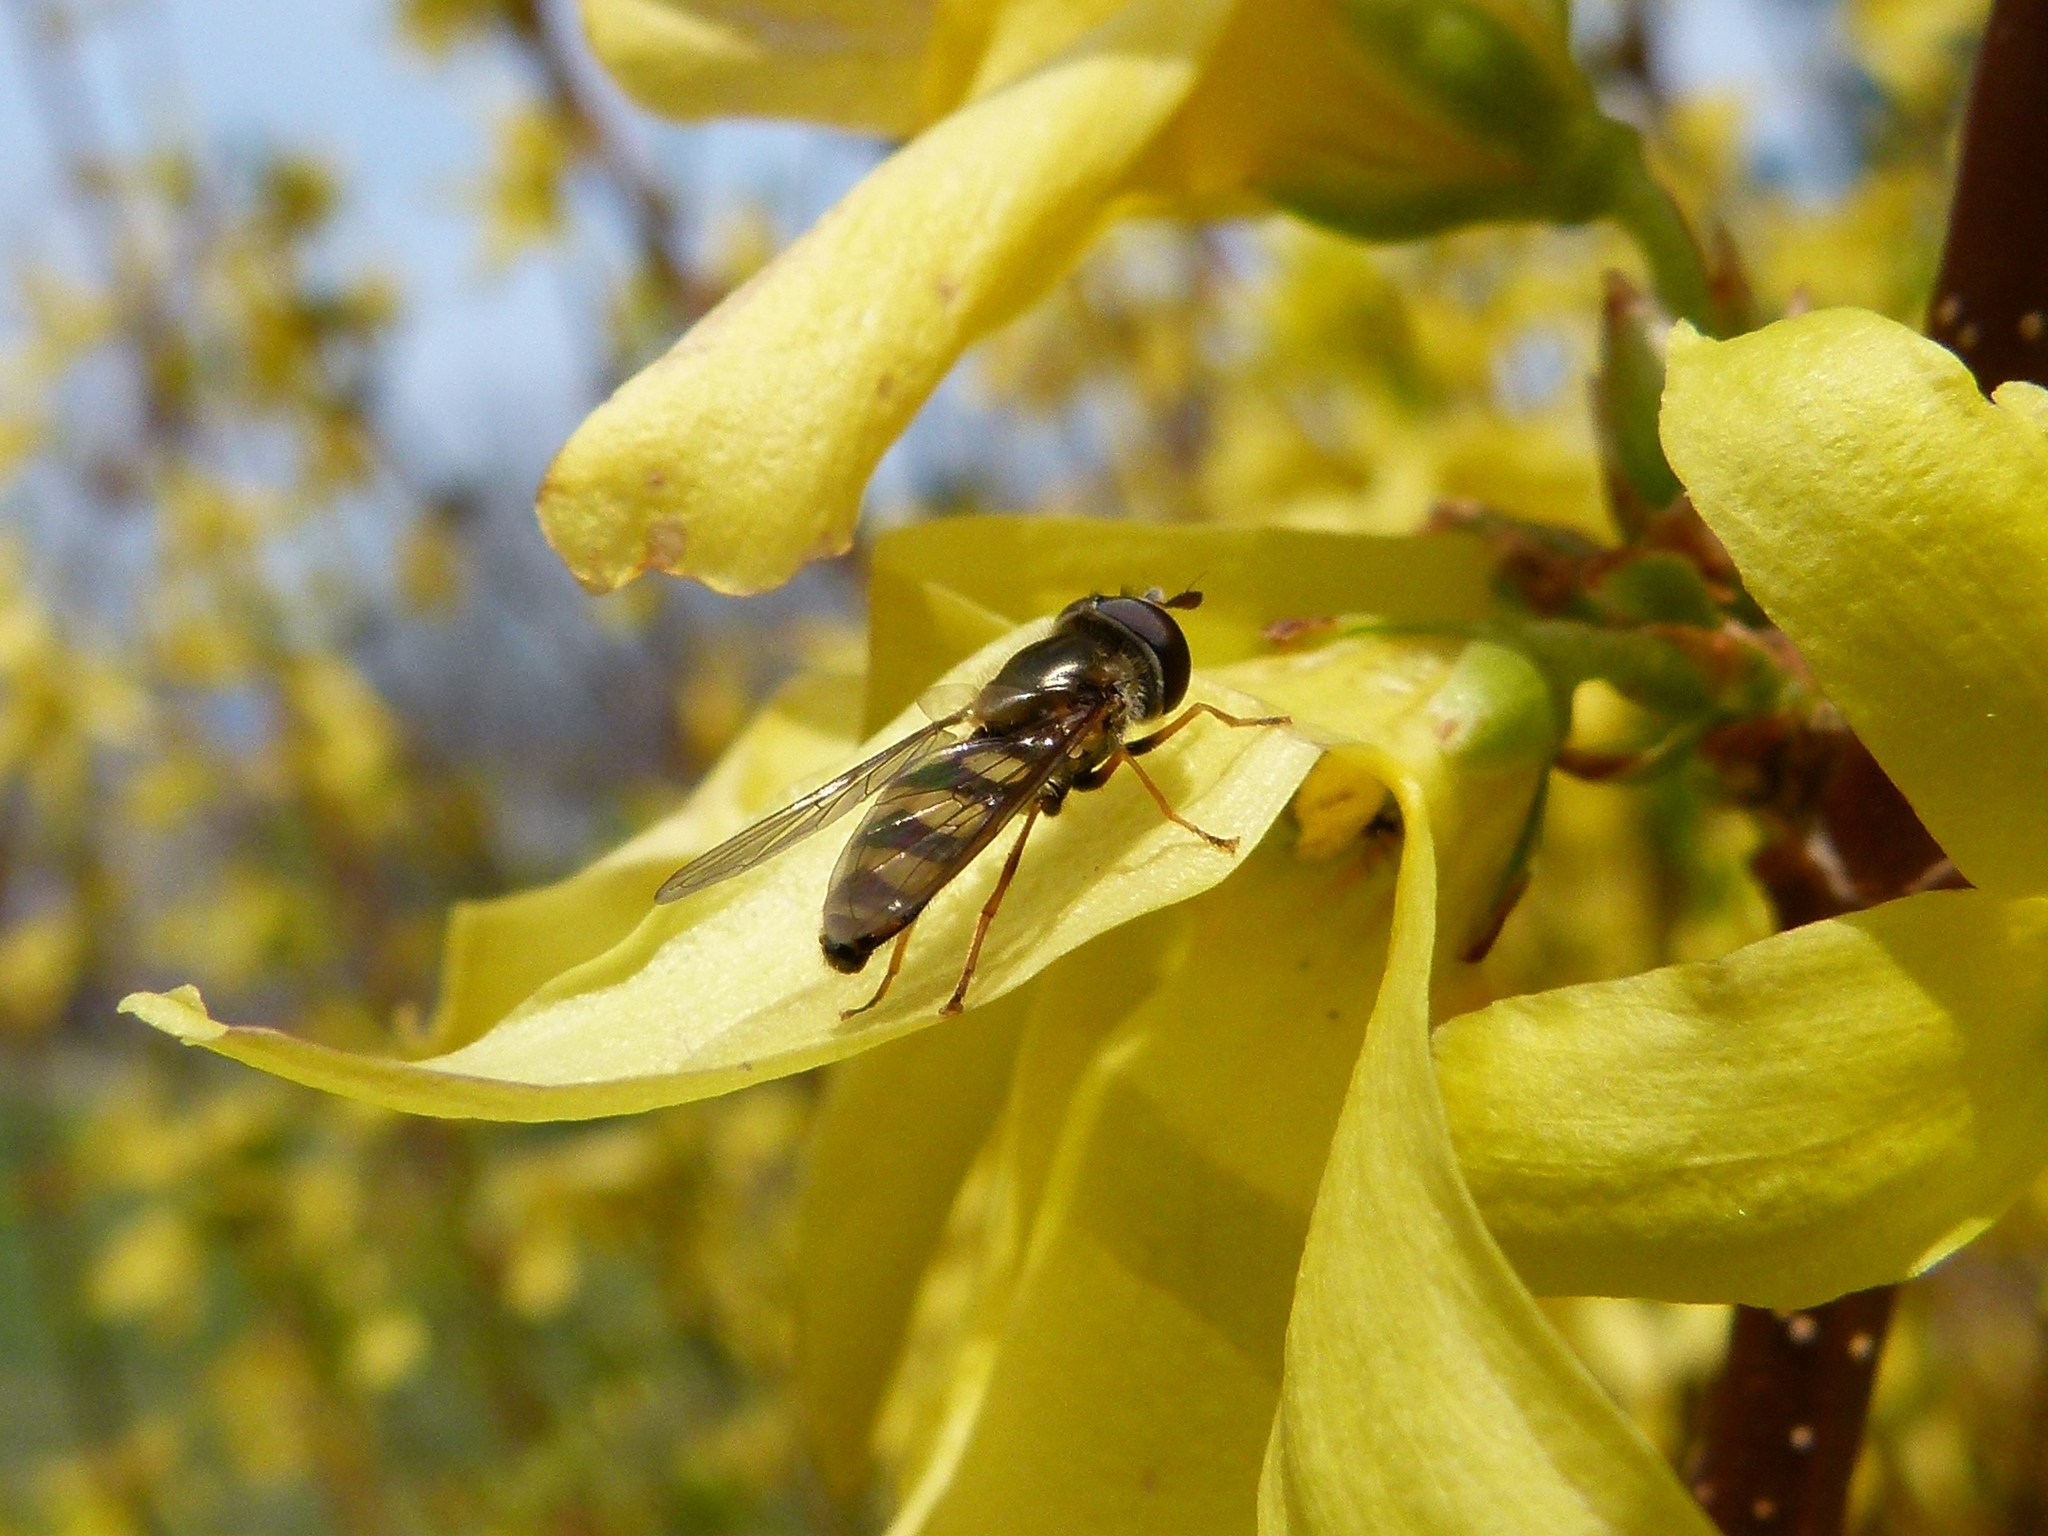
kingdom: Animalia
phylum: Arthropoda
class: Insecta
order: Diptera
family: Syrphidae
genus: Eupeodes
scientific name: Eupeodes
